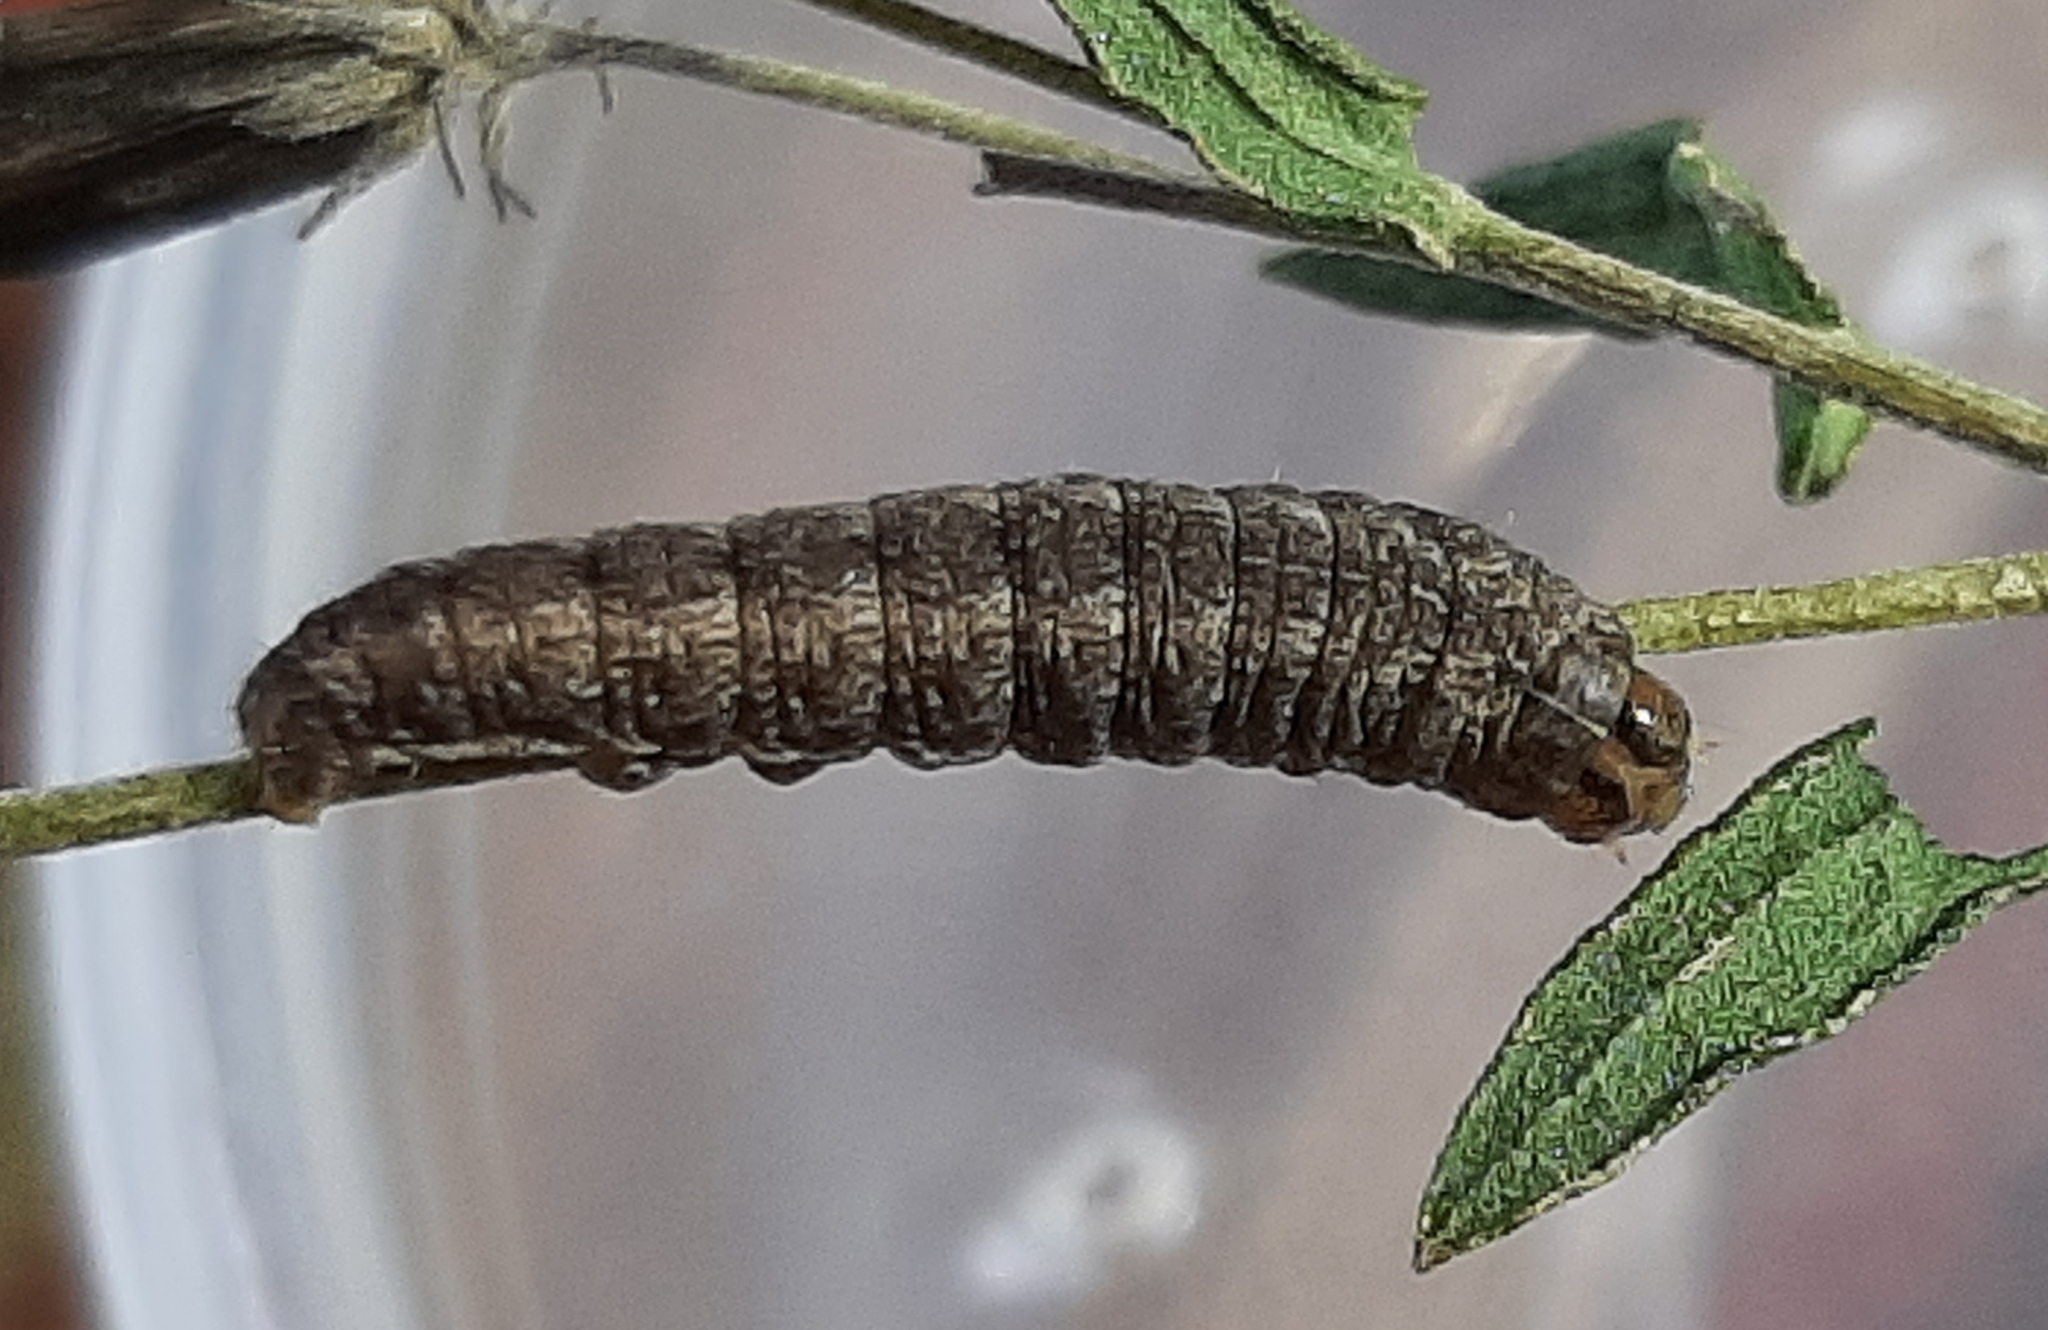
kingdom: Animalia
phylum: Arthropoda
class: Insecta
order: Lepidoptera
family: Noctuidae
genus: Schinia
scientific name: Schinia oleagina
